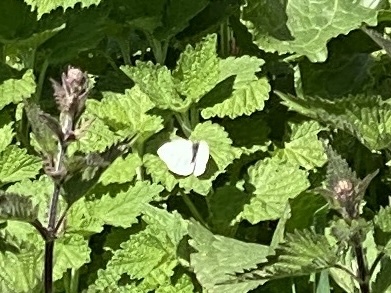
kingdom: Animalia
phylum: Arthropoda
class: Insecta
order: Lepidoptera
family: Pieridae
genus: Pieris
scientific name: Pieris rapae
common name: Small white
